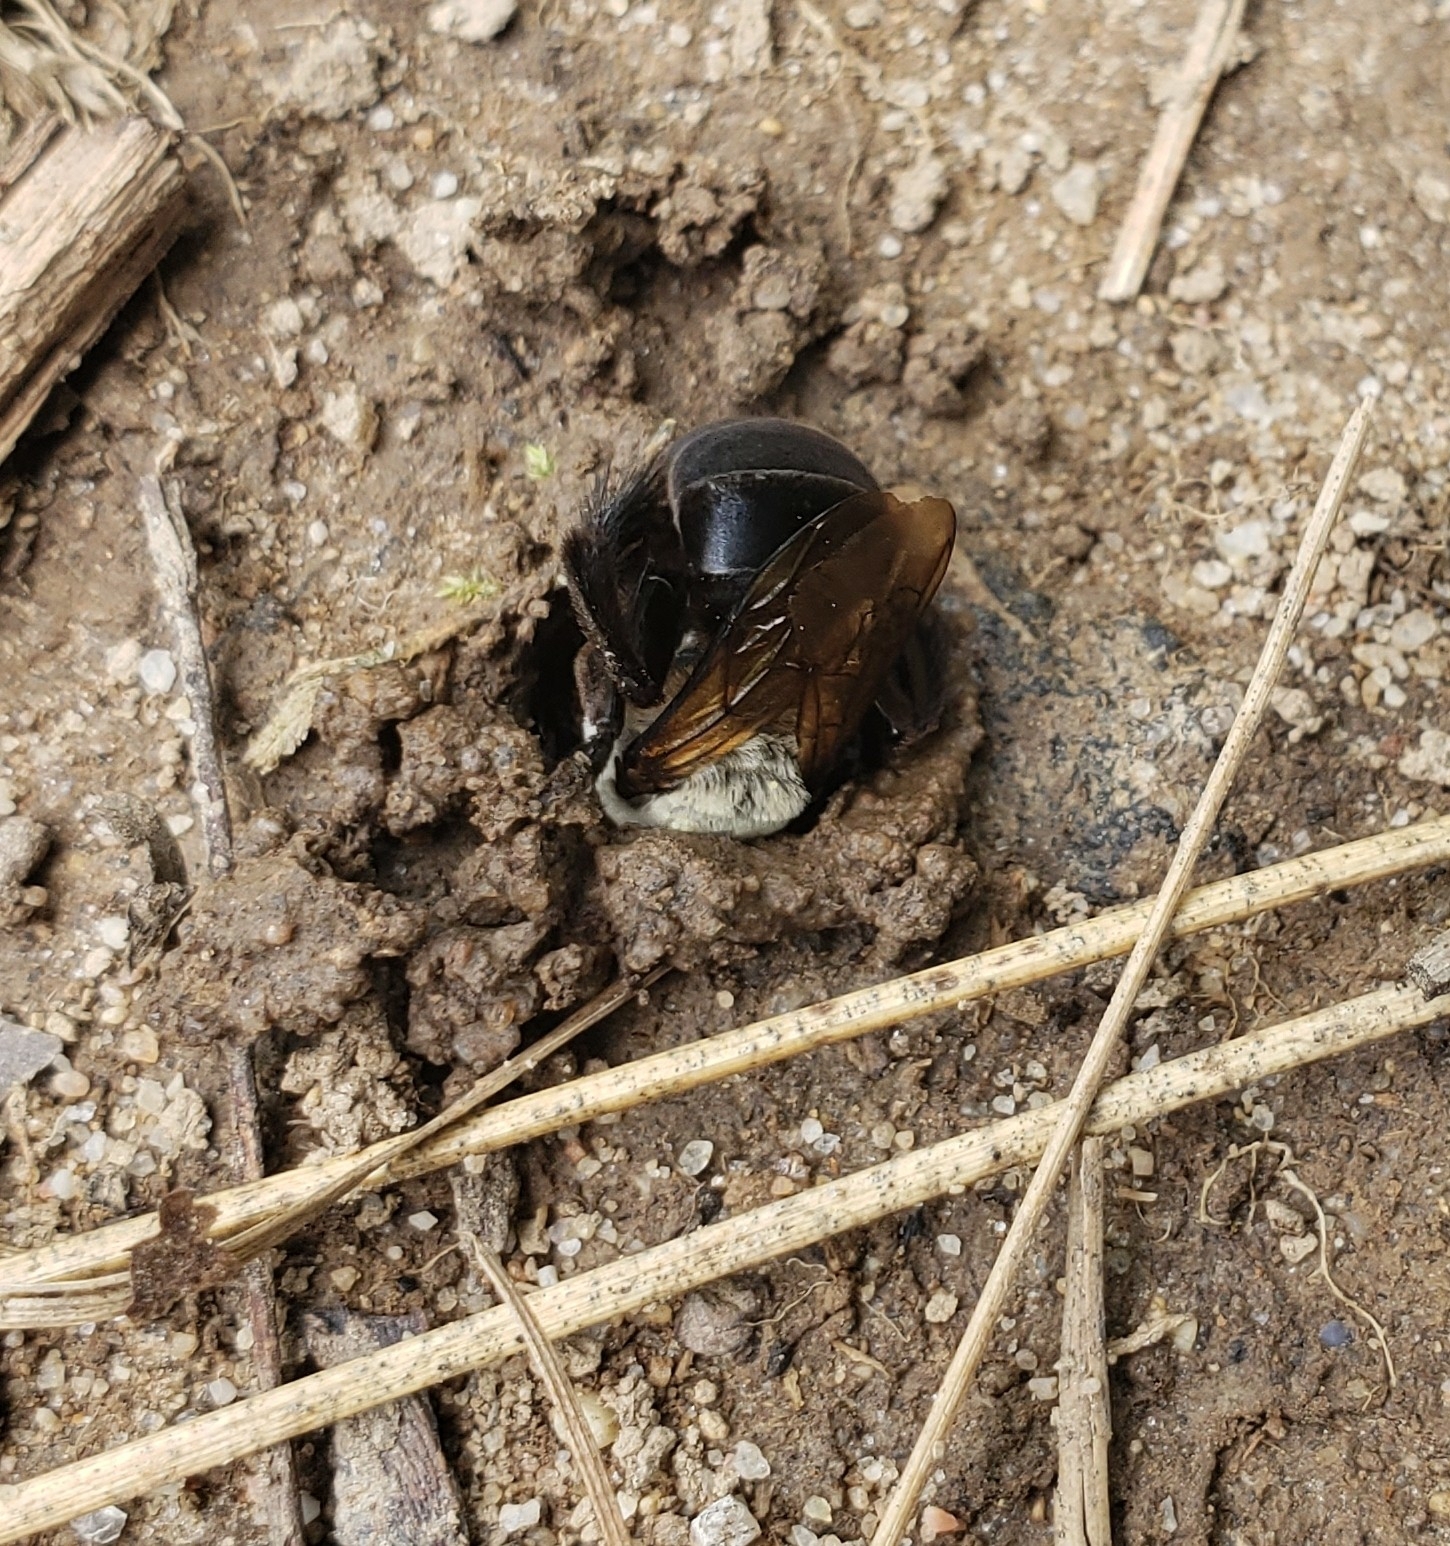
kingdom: Animalia
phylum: Arthropoda
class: Insecta
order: Hymenoptera
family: Apidae
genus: Ptilothrix
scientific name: Ptilothrix bombiformis
